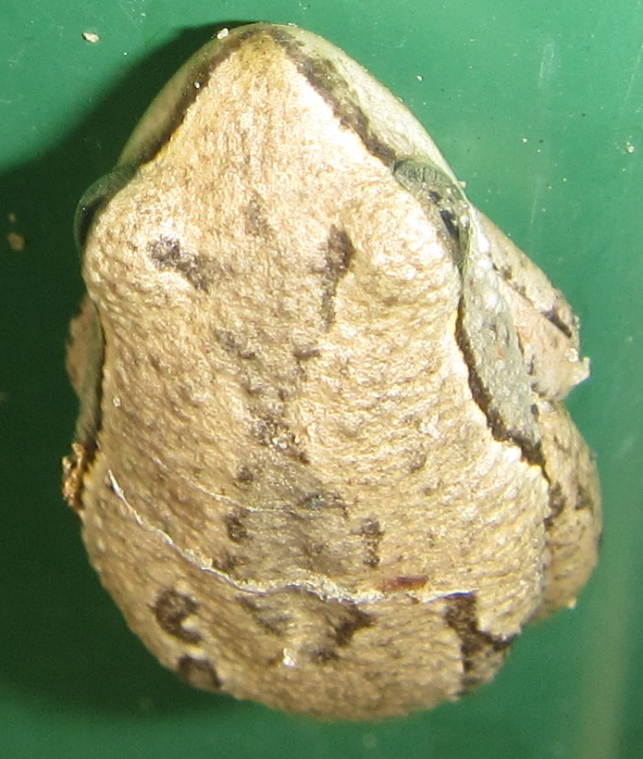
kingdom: Animalia
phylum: Chordata
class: Amphibia
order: Anura
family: Hyperoliidae
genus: Hyperolius
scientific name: Hyperolius parallelus
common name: Angolan reed frog
